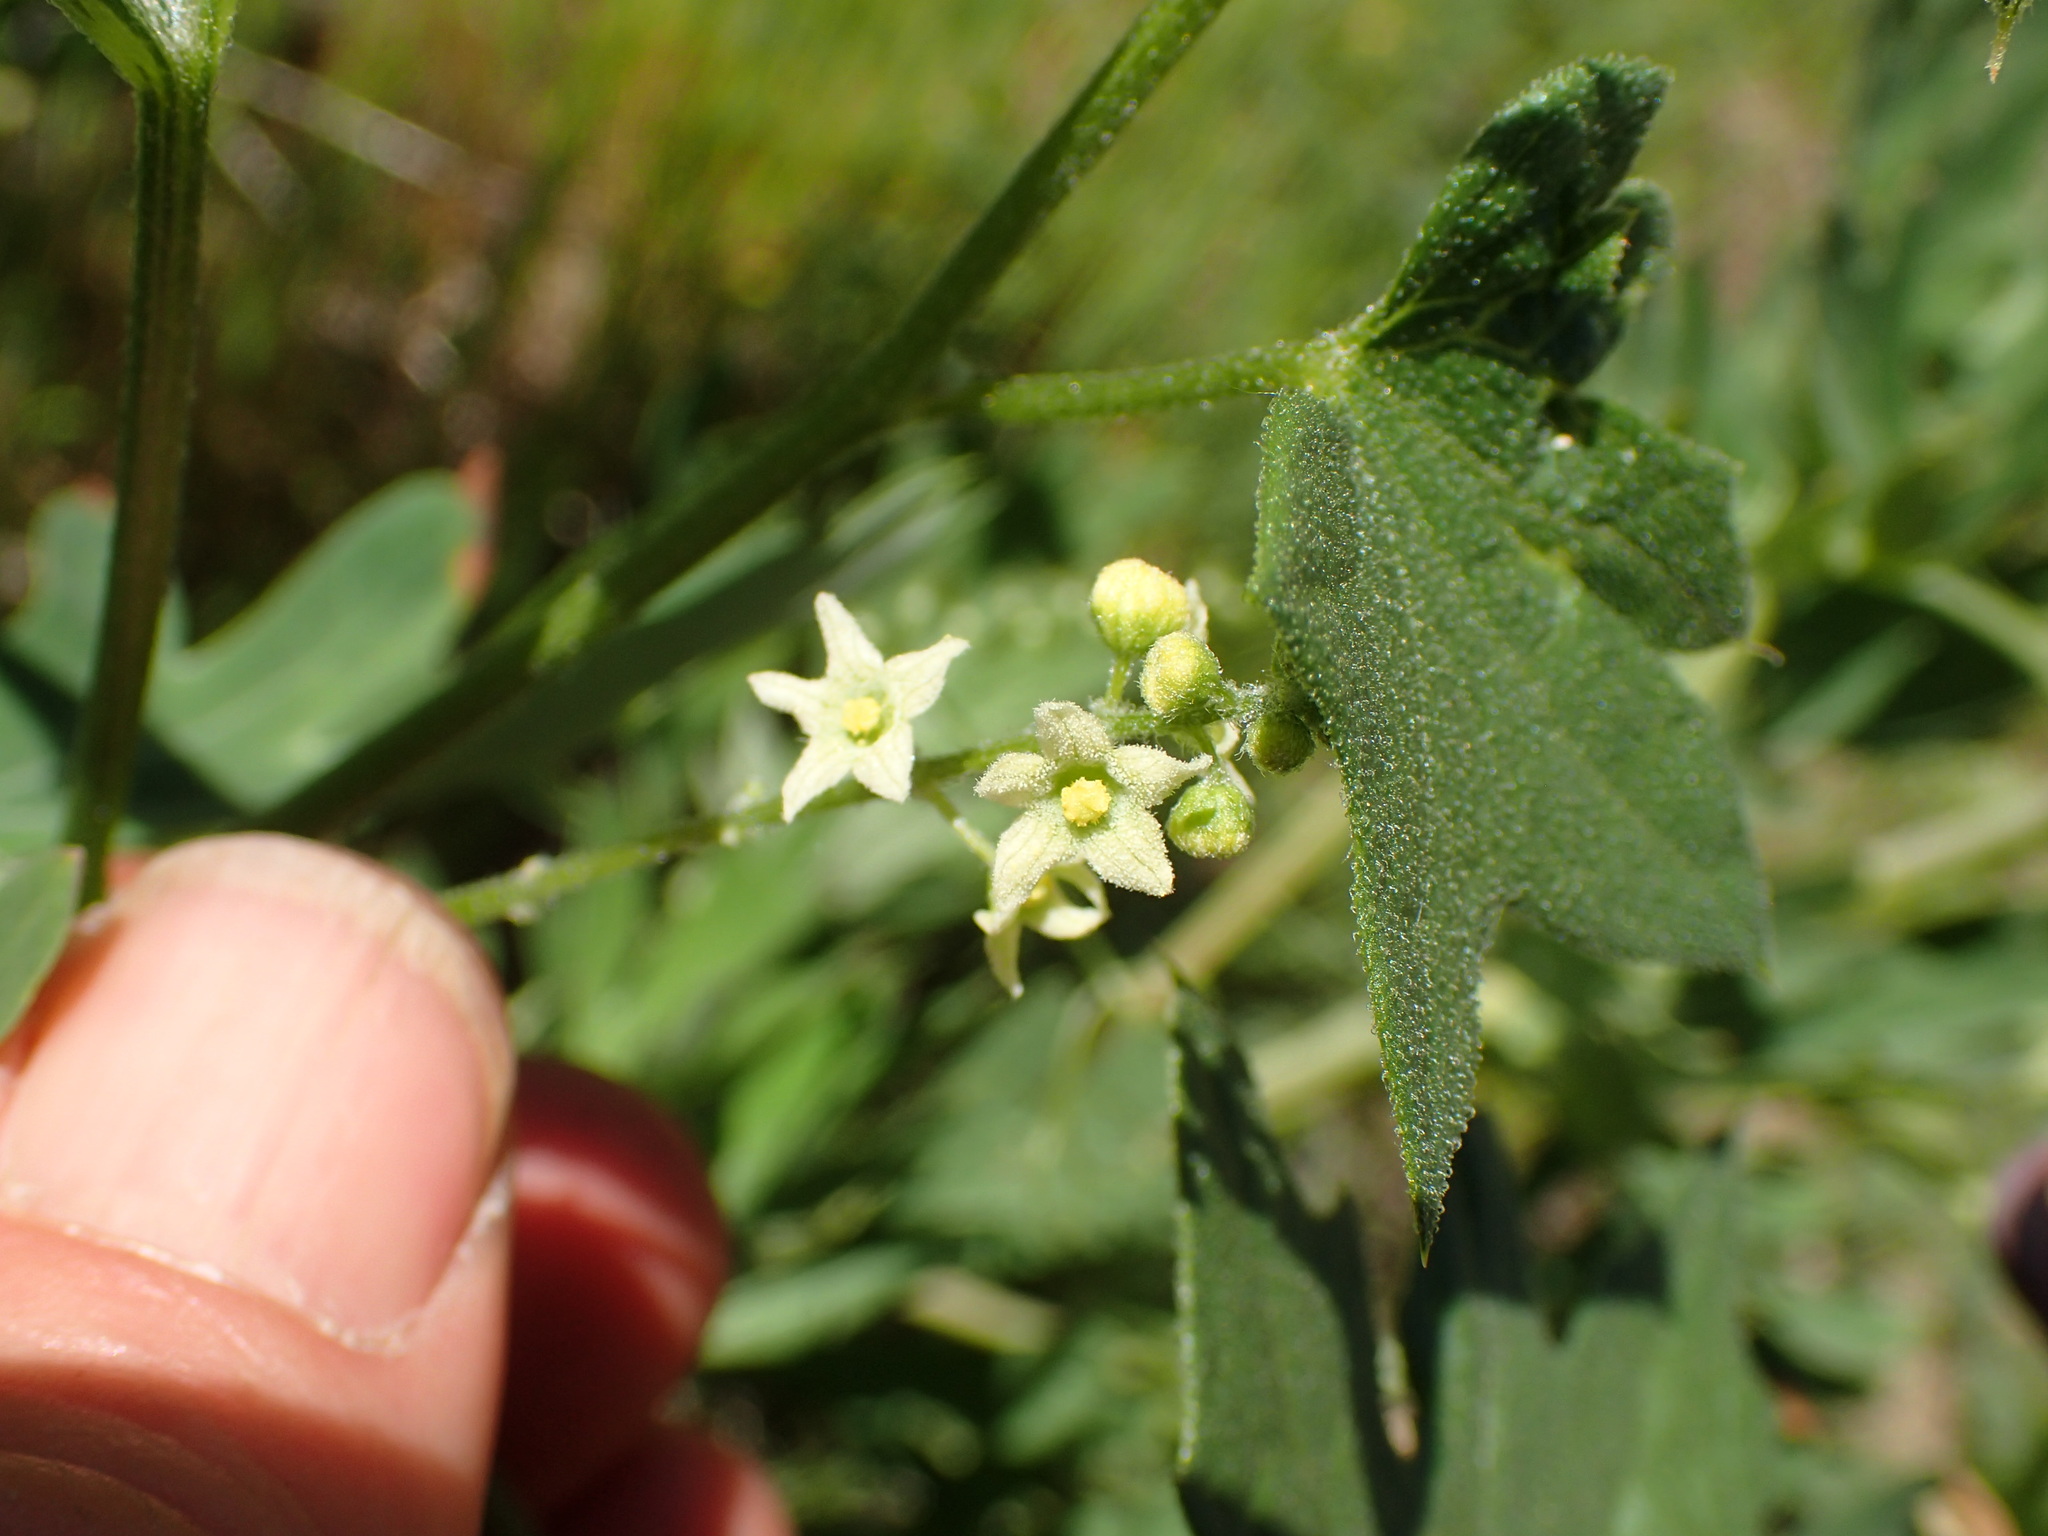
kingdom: Plantae
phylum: Tracheophyta
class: Magnoliopsida
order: Cucurbitales
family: Cucurbitaceae
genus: Marah
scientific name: Marah fabacea
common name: California manroot
